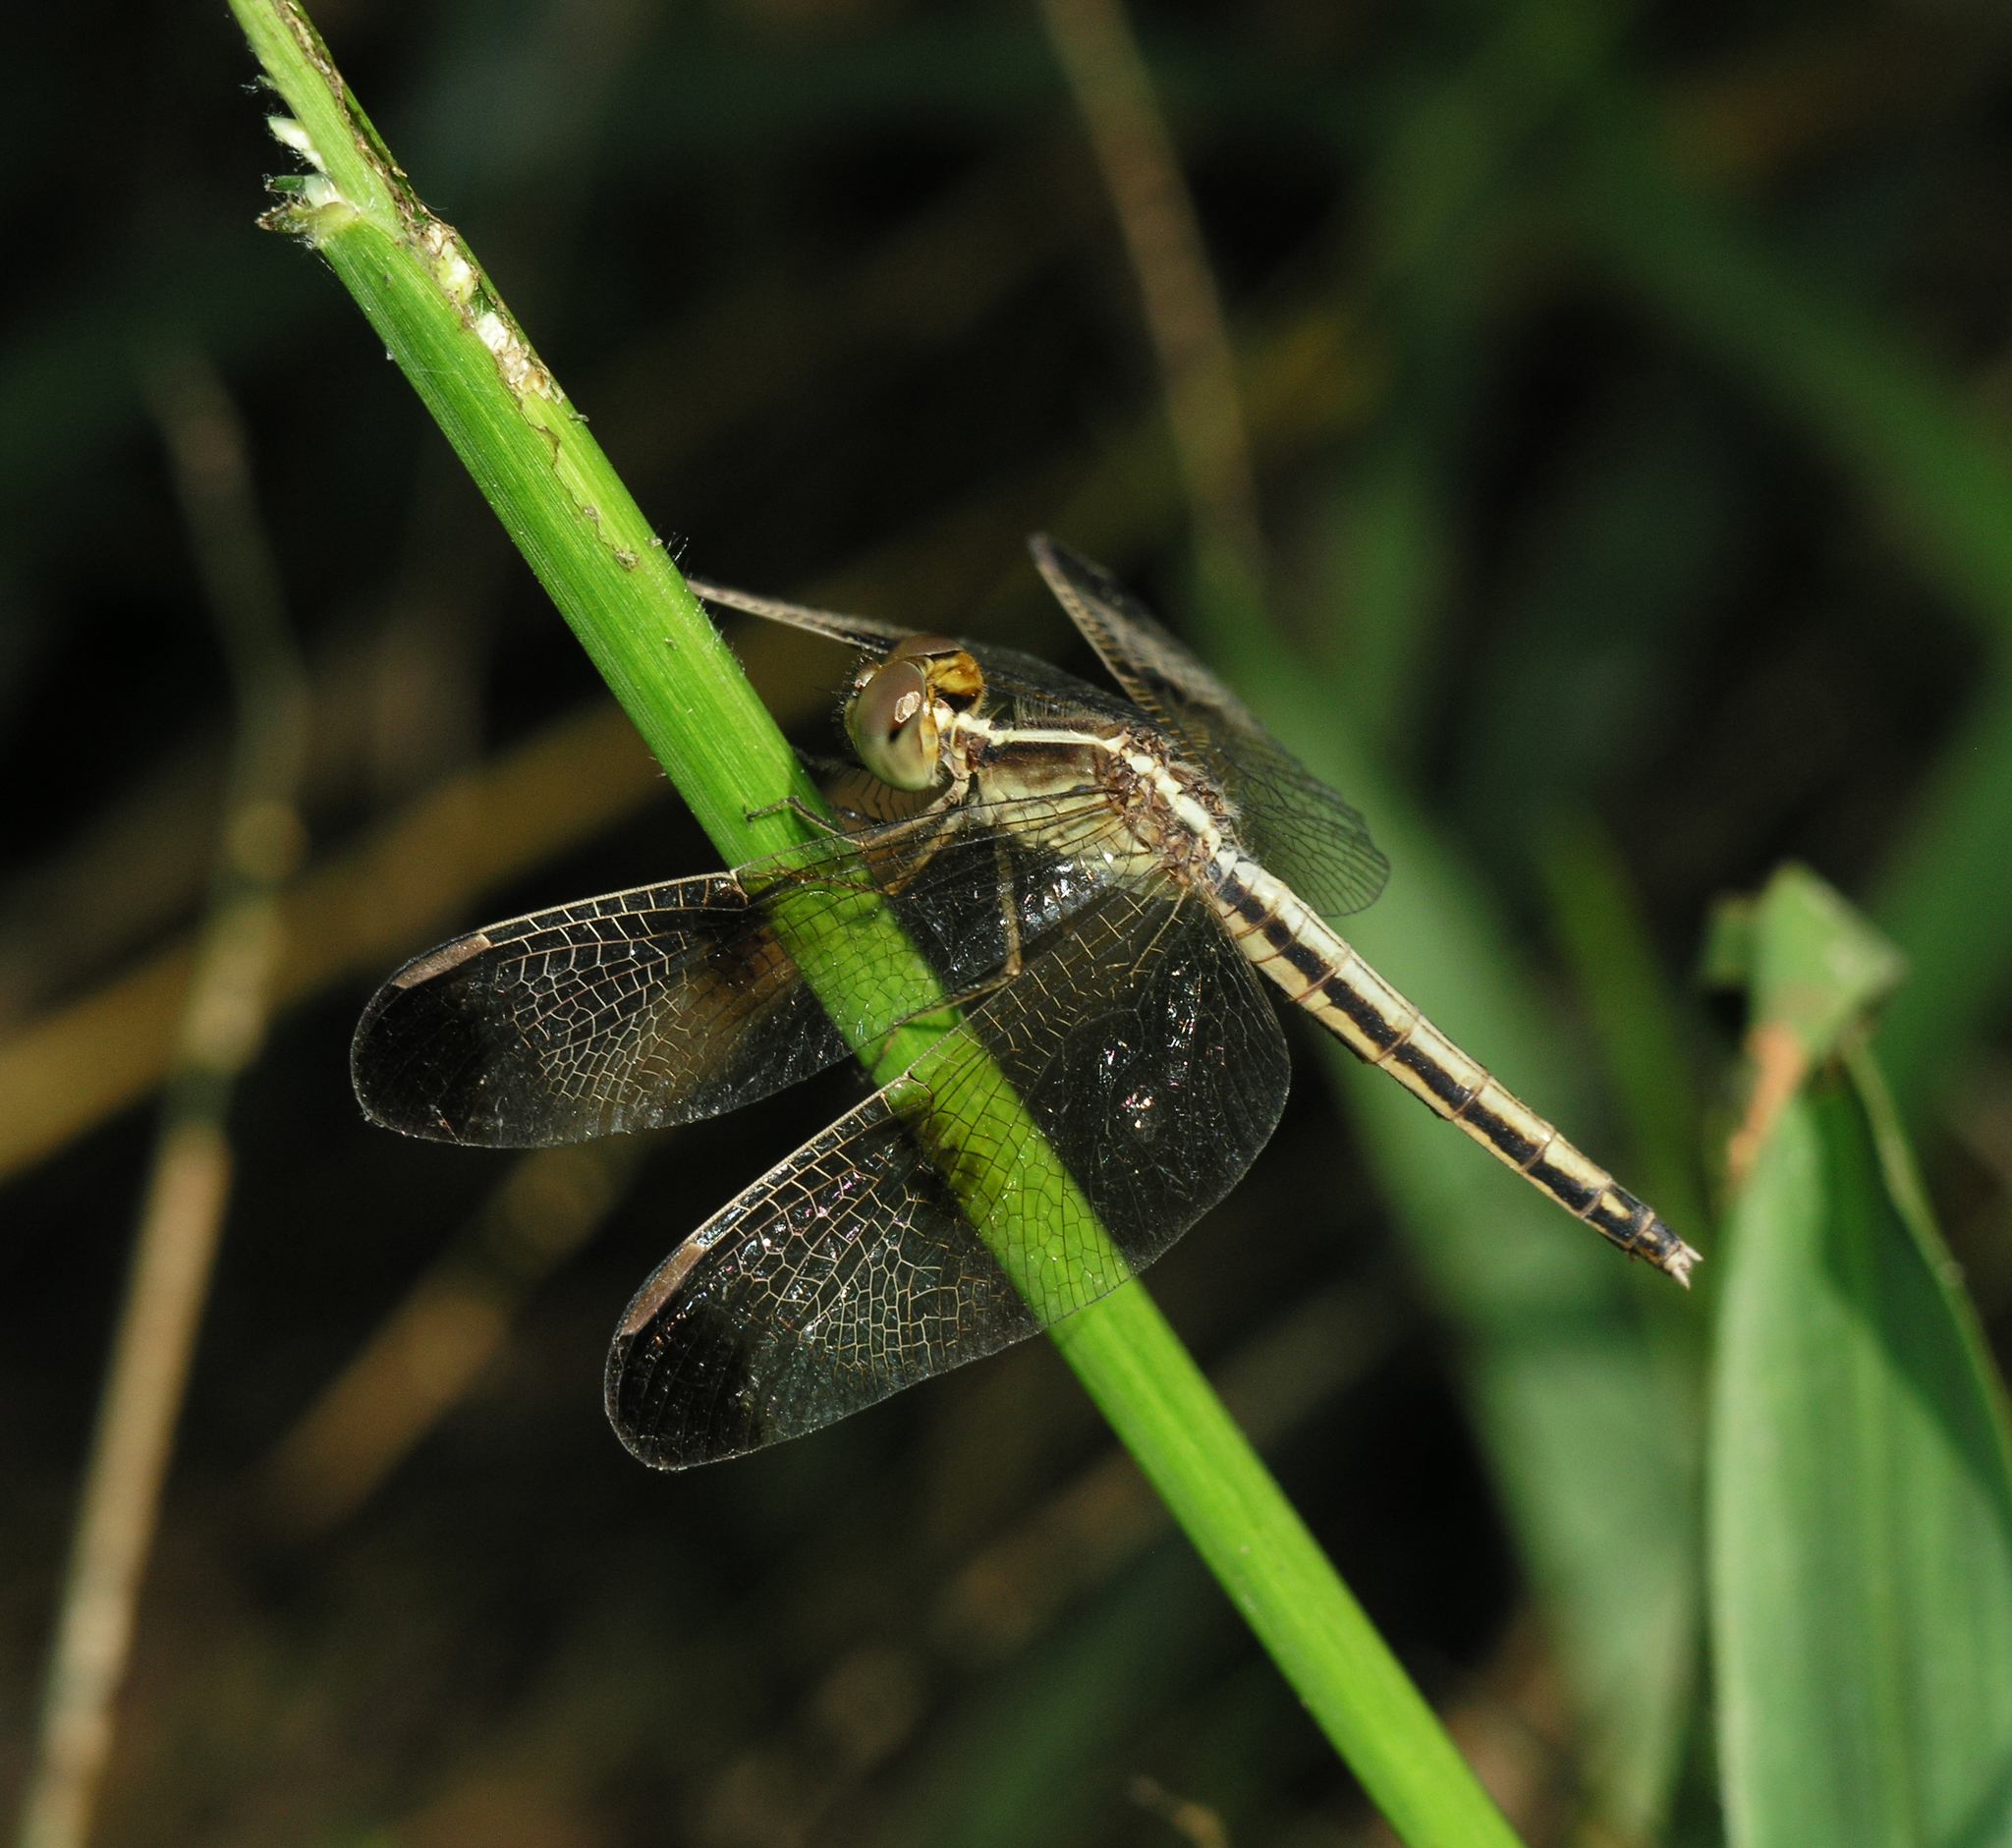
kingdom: Animalia
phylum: Arthropoda
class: Insecta
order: Odonata
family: Libellulidae
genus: Neurothemis
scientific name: Neurothemis tullia
